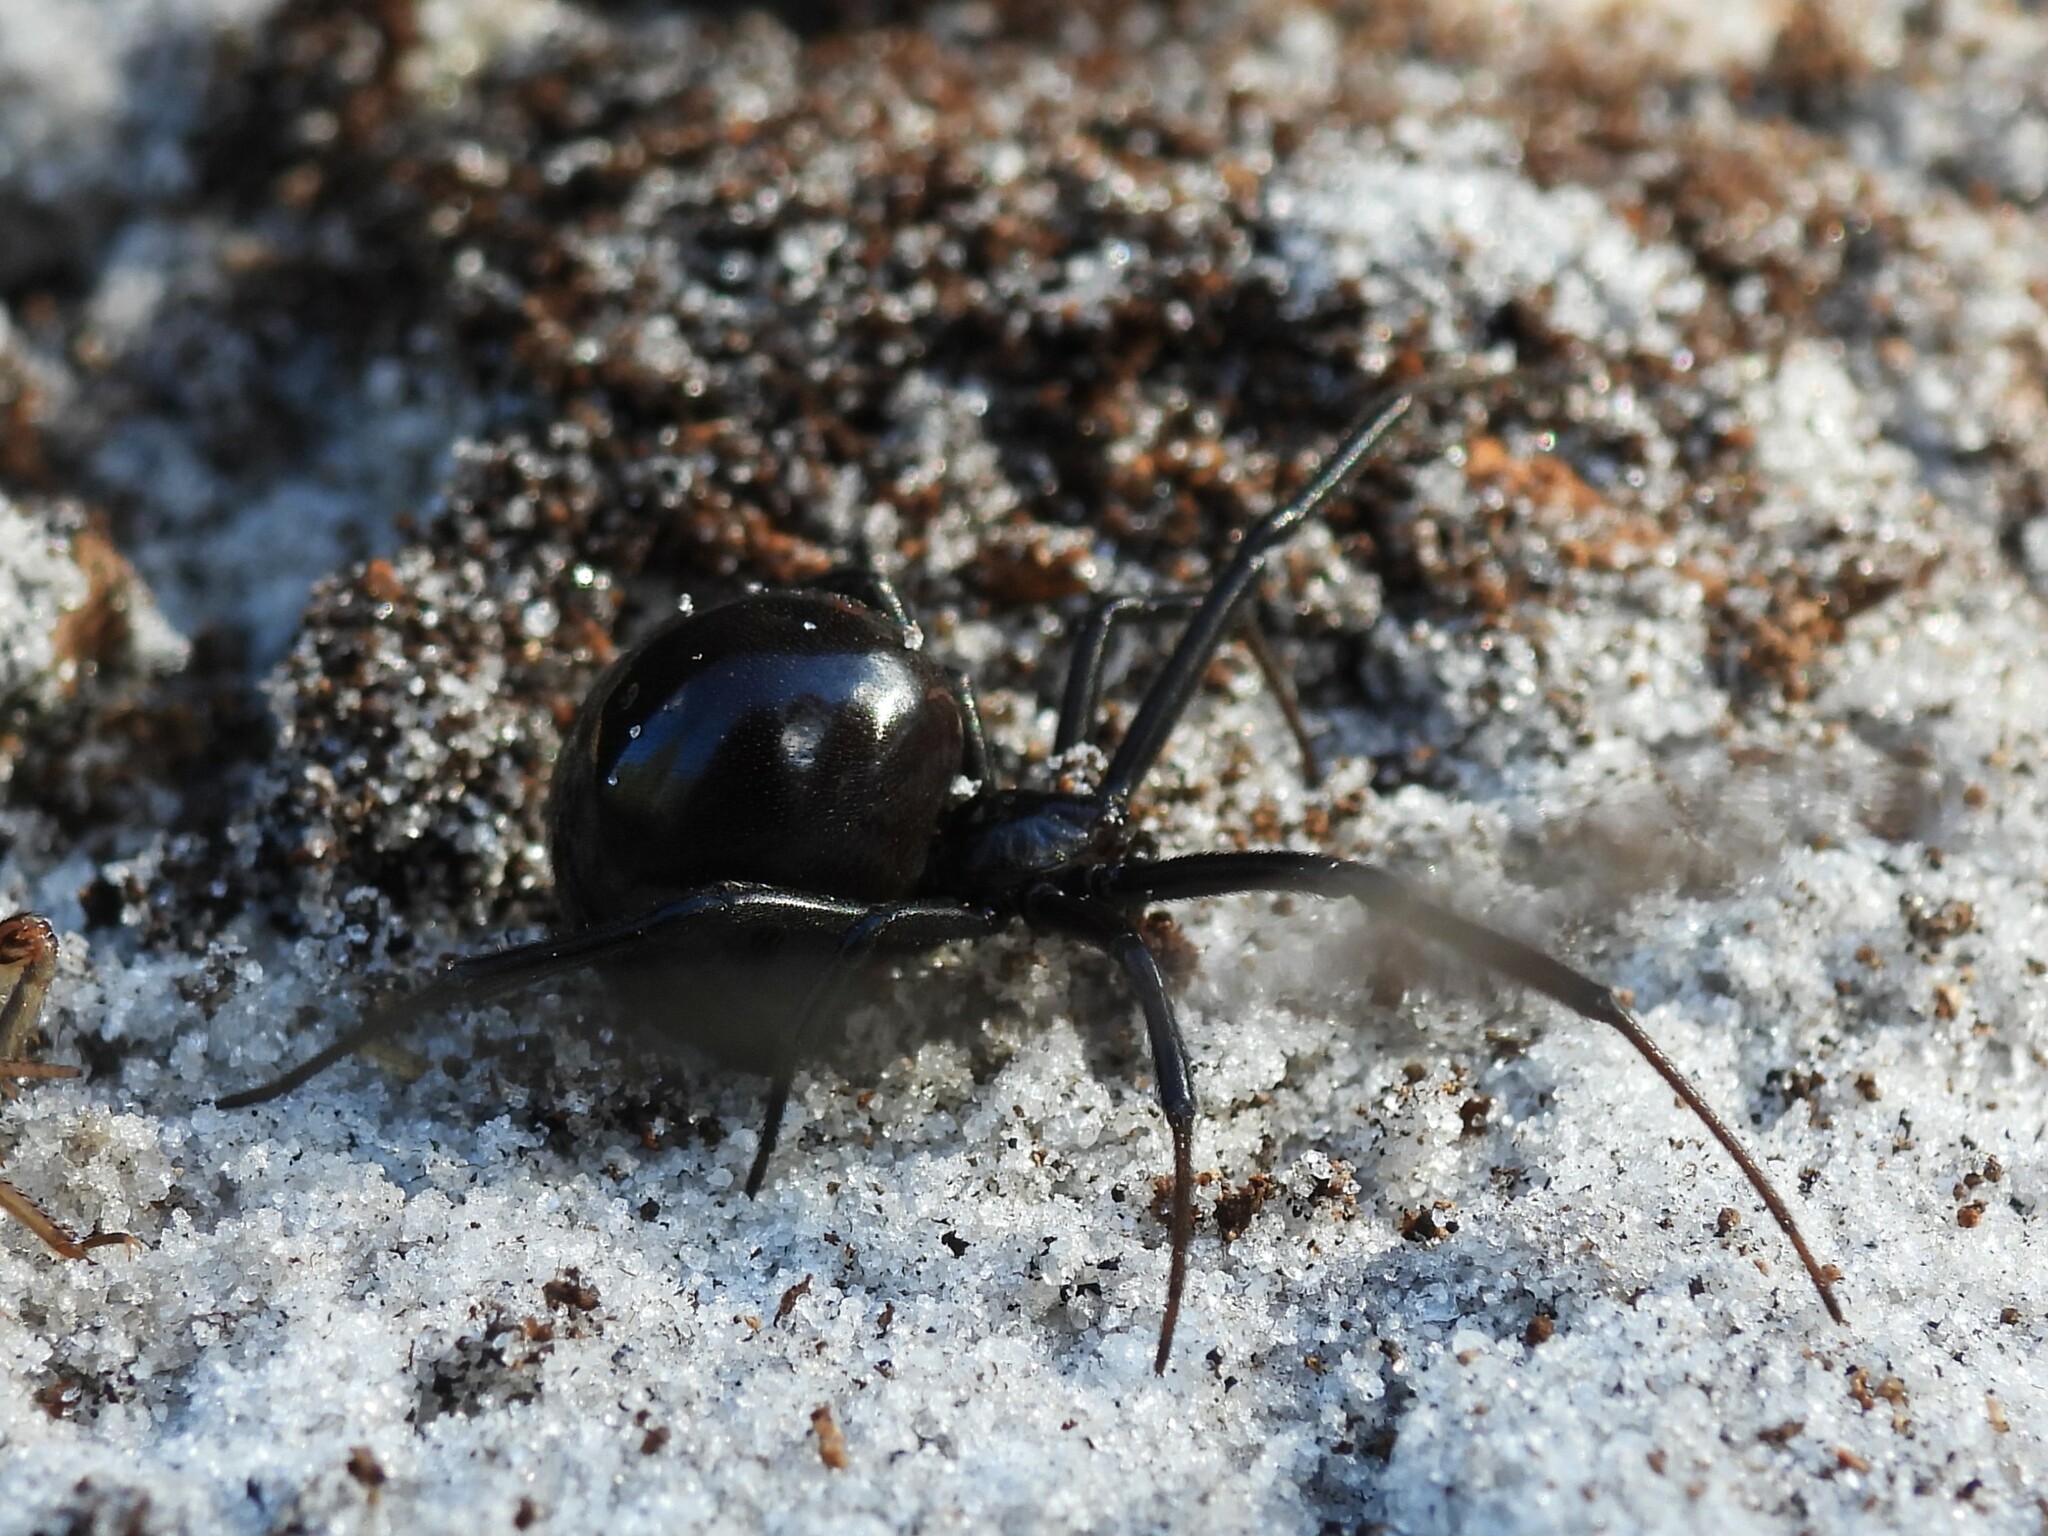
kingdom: Animalia
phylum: Arthropoda
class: Arachnida
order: Araneae
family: Theridiidae
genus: Latrodectus
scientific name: Latrodectus mactans
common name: Cobweb spiders
